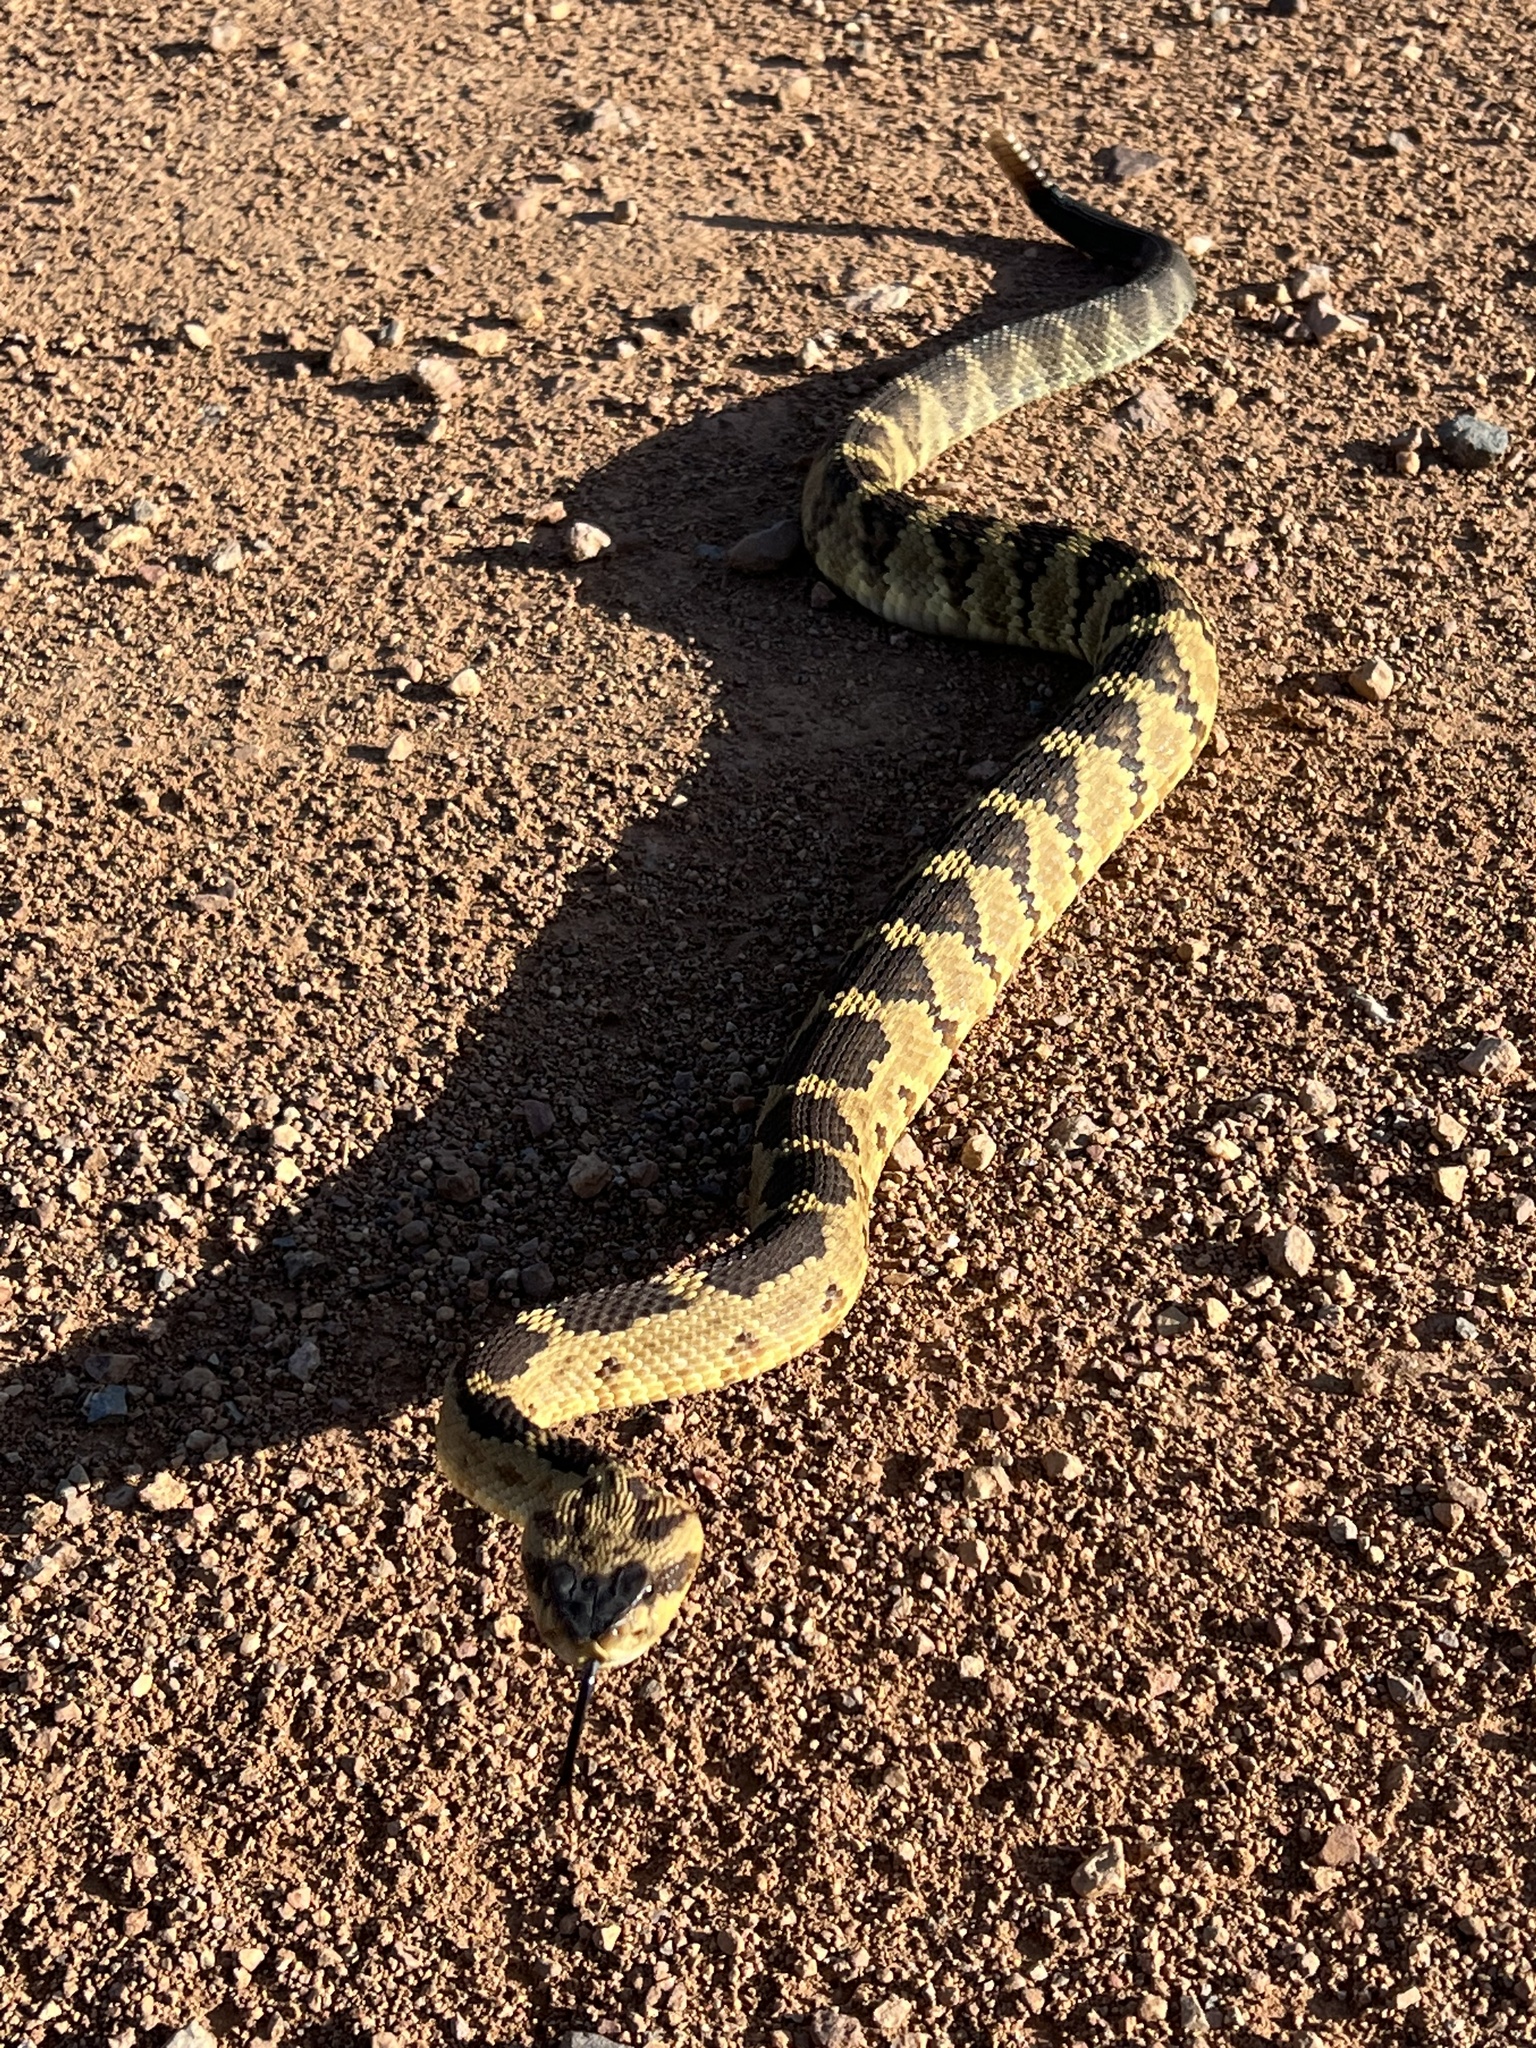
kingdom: Animalia
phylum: Chordata
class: Squamata
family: Viperidae
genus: Crotalus
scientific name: Crotalus molossus
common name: Black tailed rattlesnake
